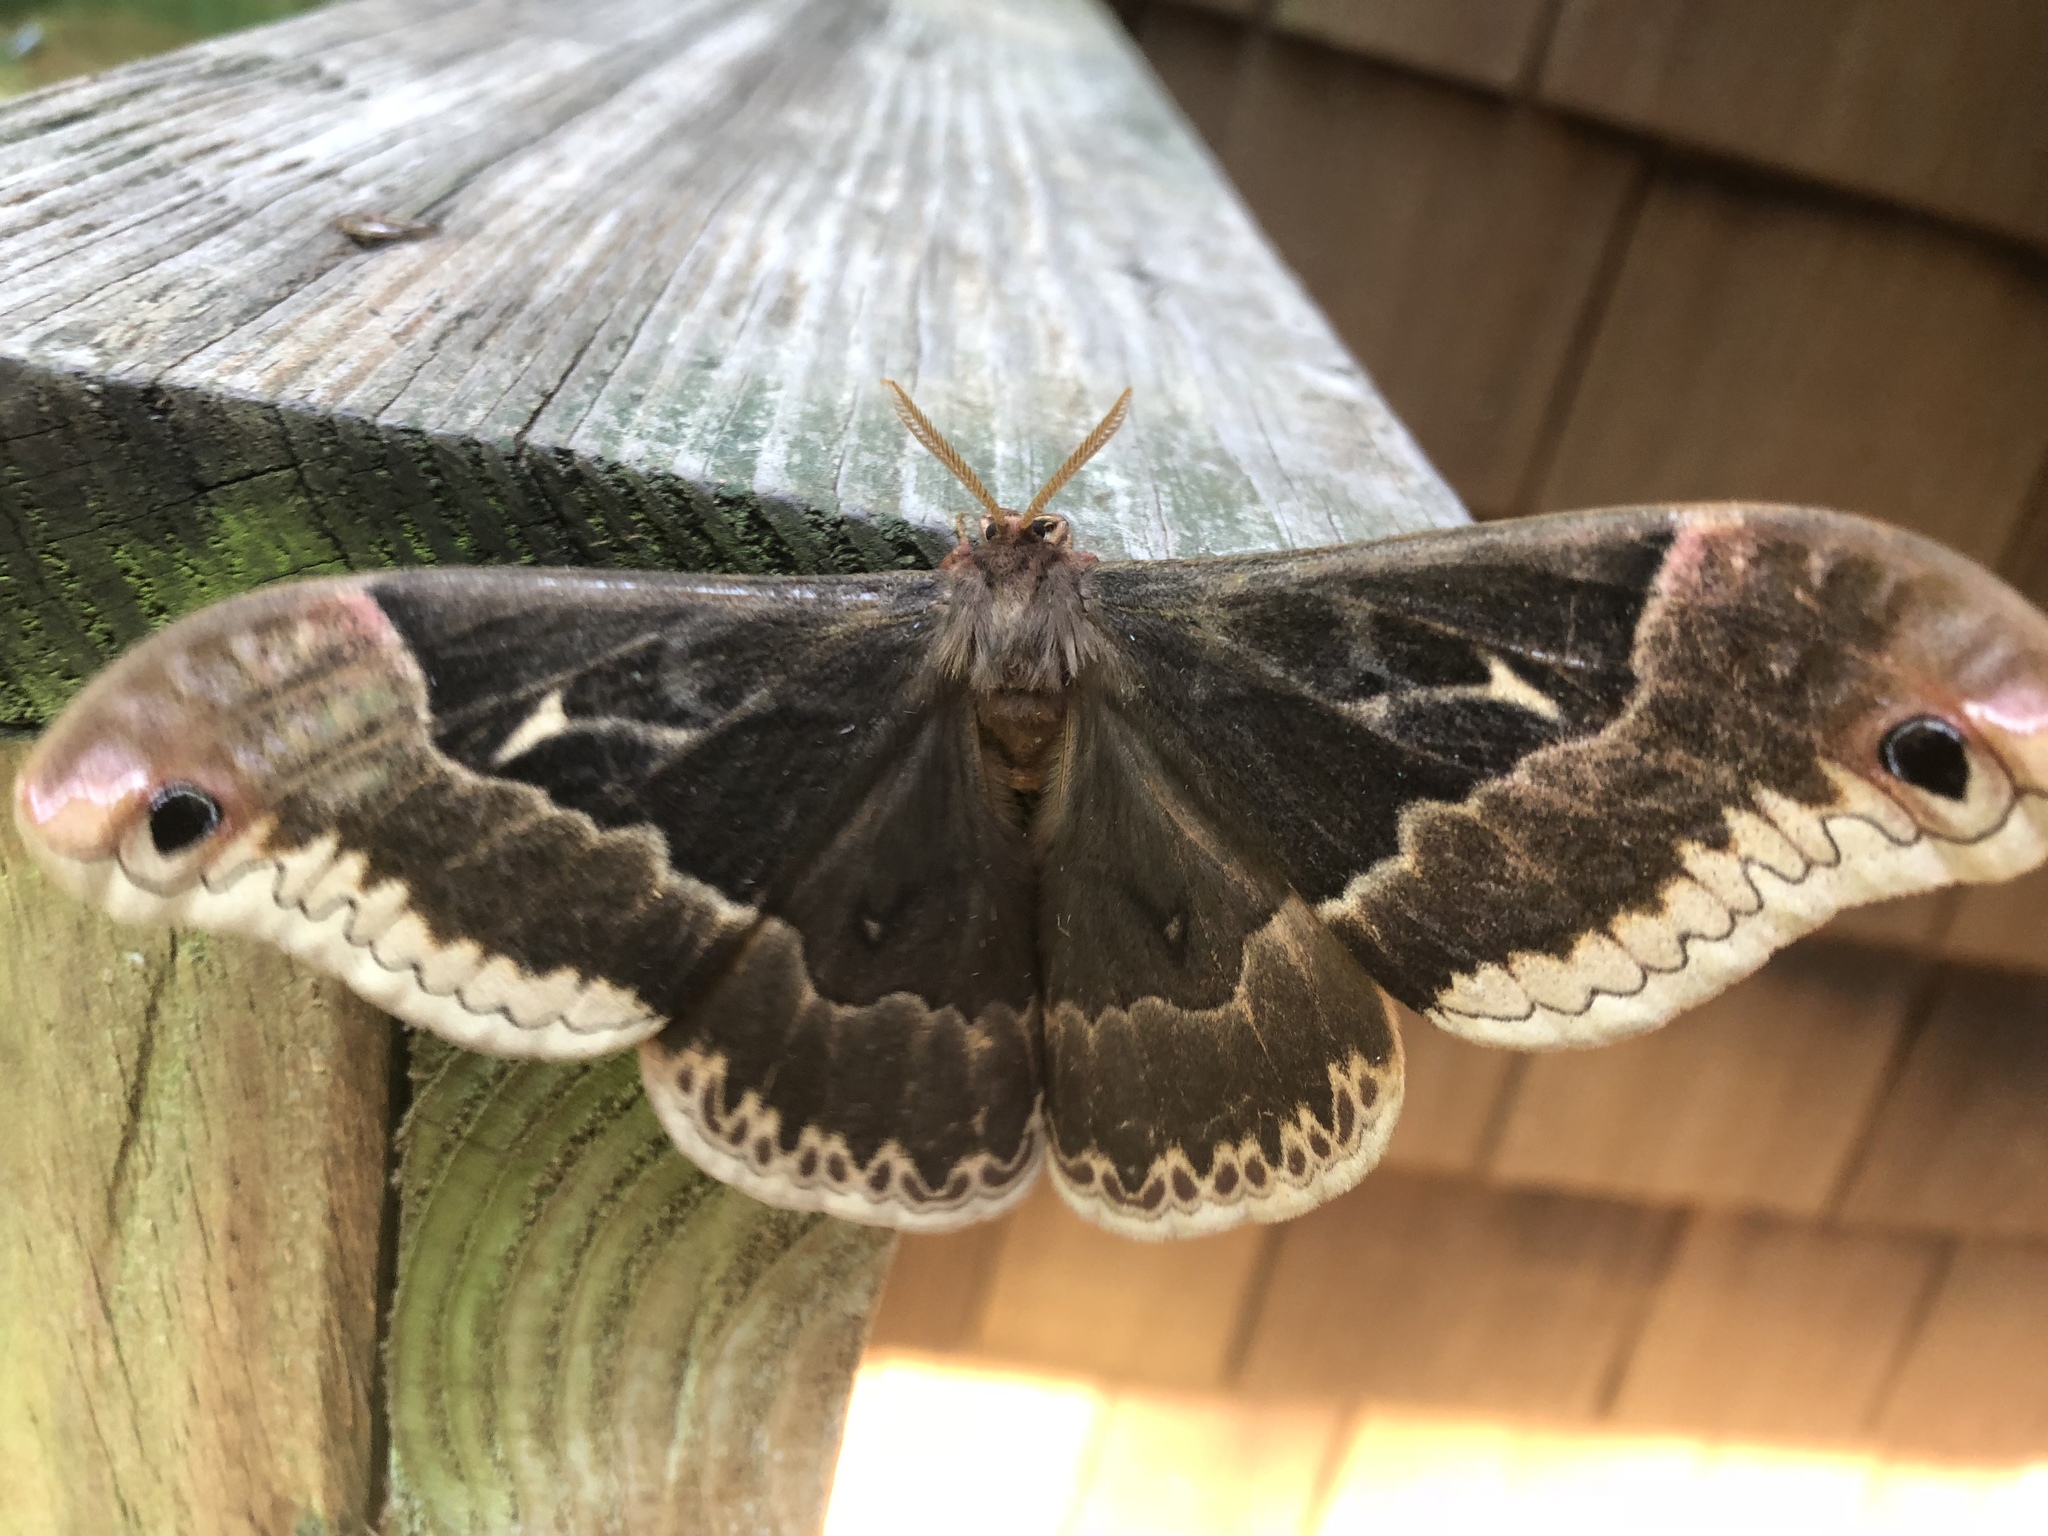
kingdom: Animalia
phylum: Arthropoda
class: Insecta
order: Lepidoptera
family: Saturniidae
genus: Callosamia
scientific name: Callosamia angulifera
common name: Tulip tree silkmoth
